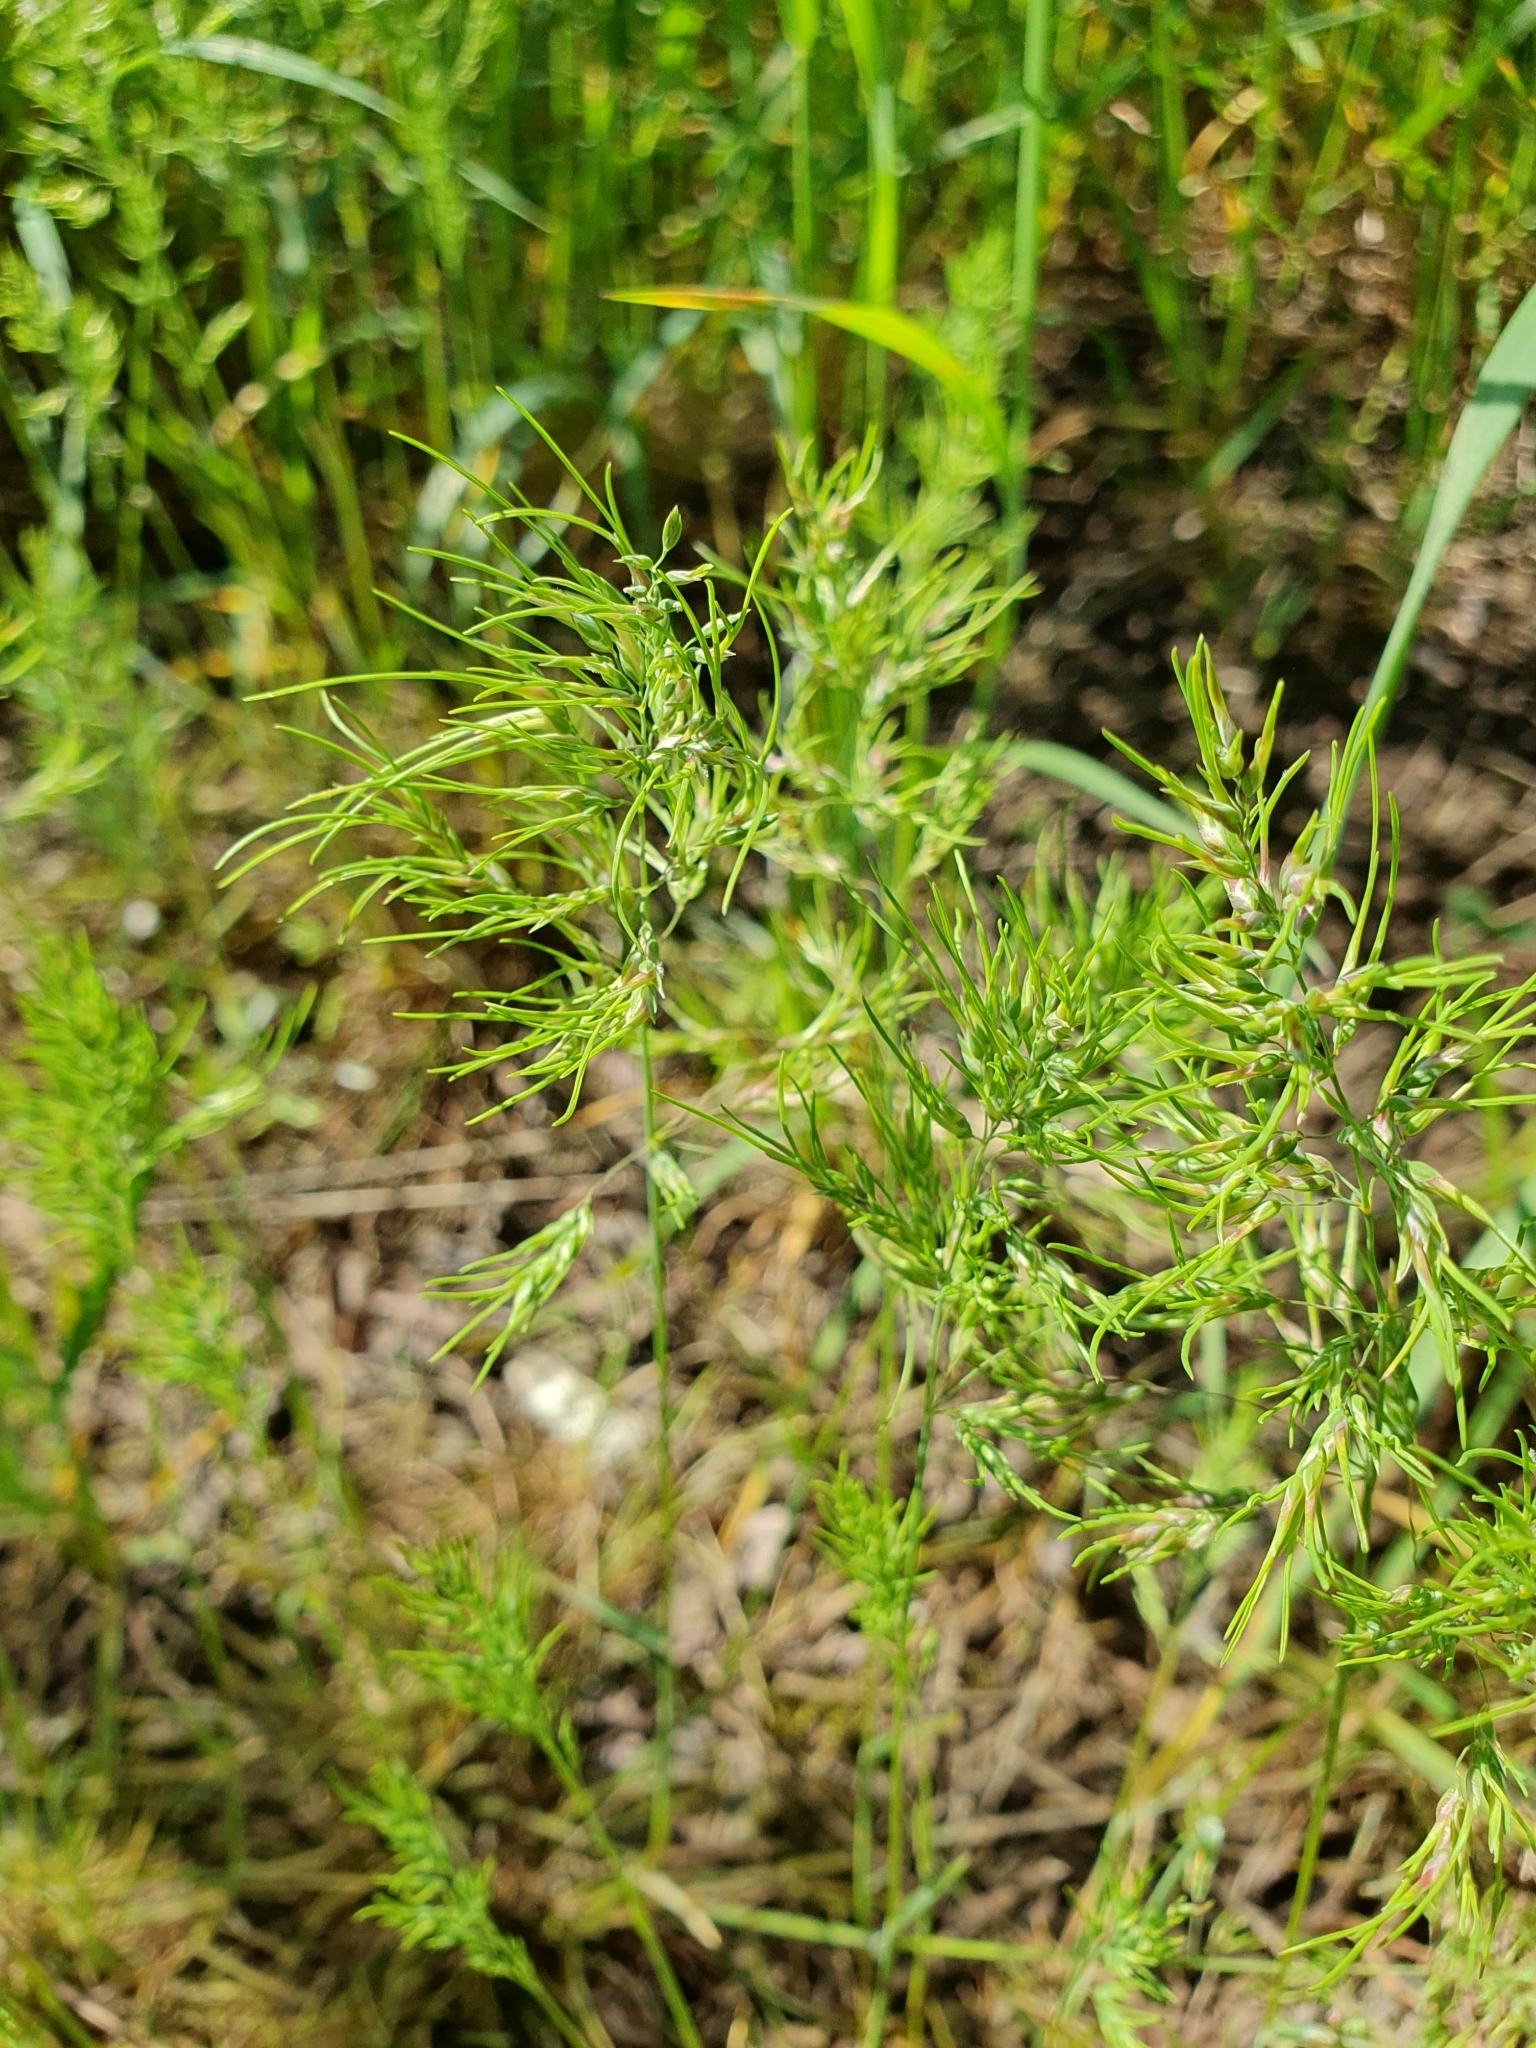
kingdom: Plantae
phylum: Tracheophyta
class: Liliopsida
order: Poales
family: Poaceae
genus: Poa
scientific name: Poa bulbosa
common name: Bulbous bluegrass
